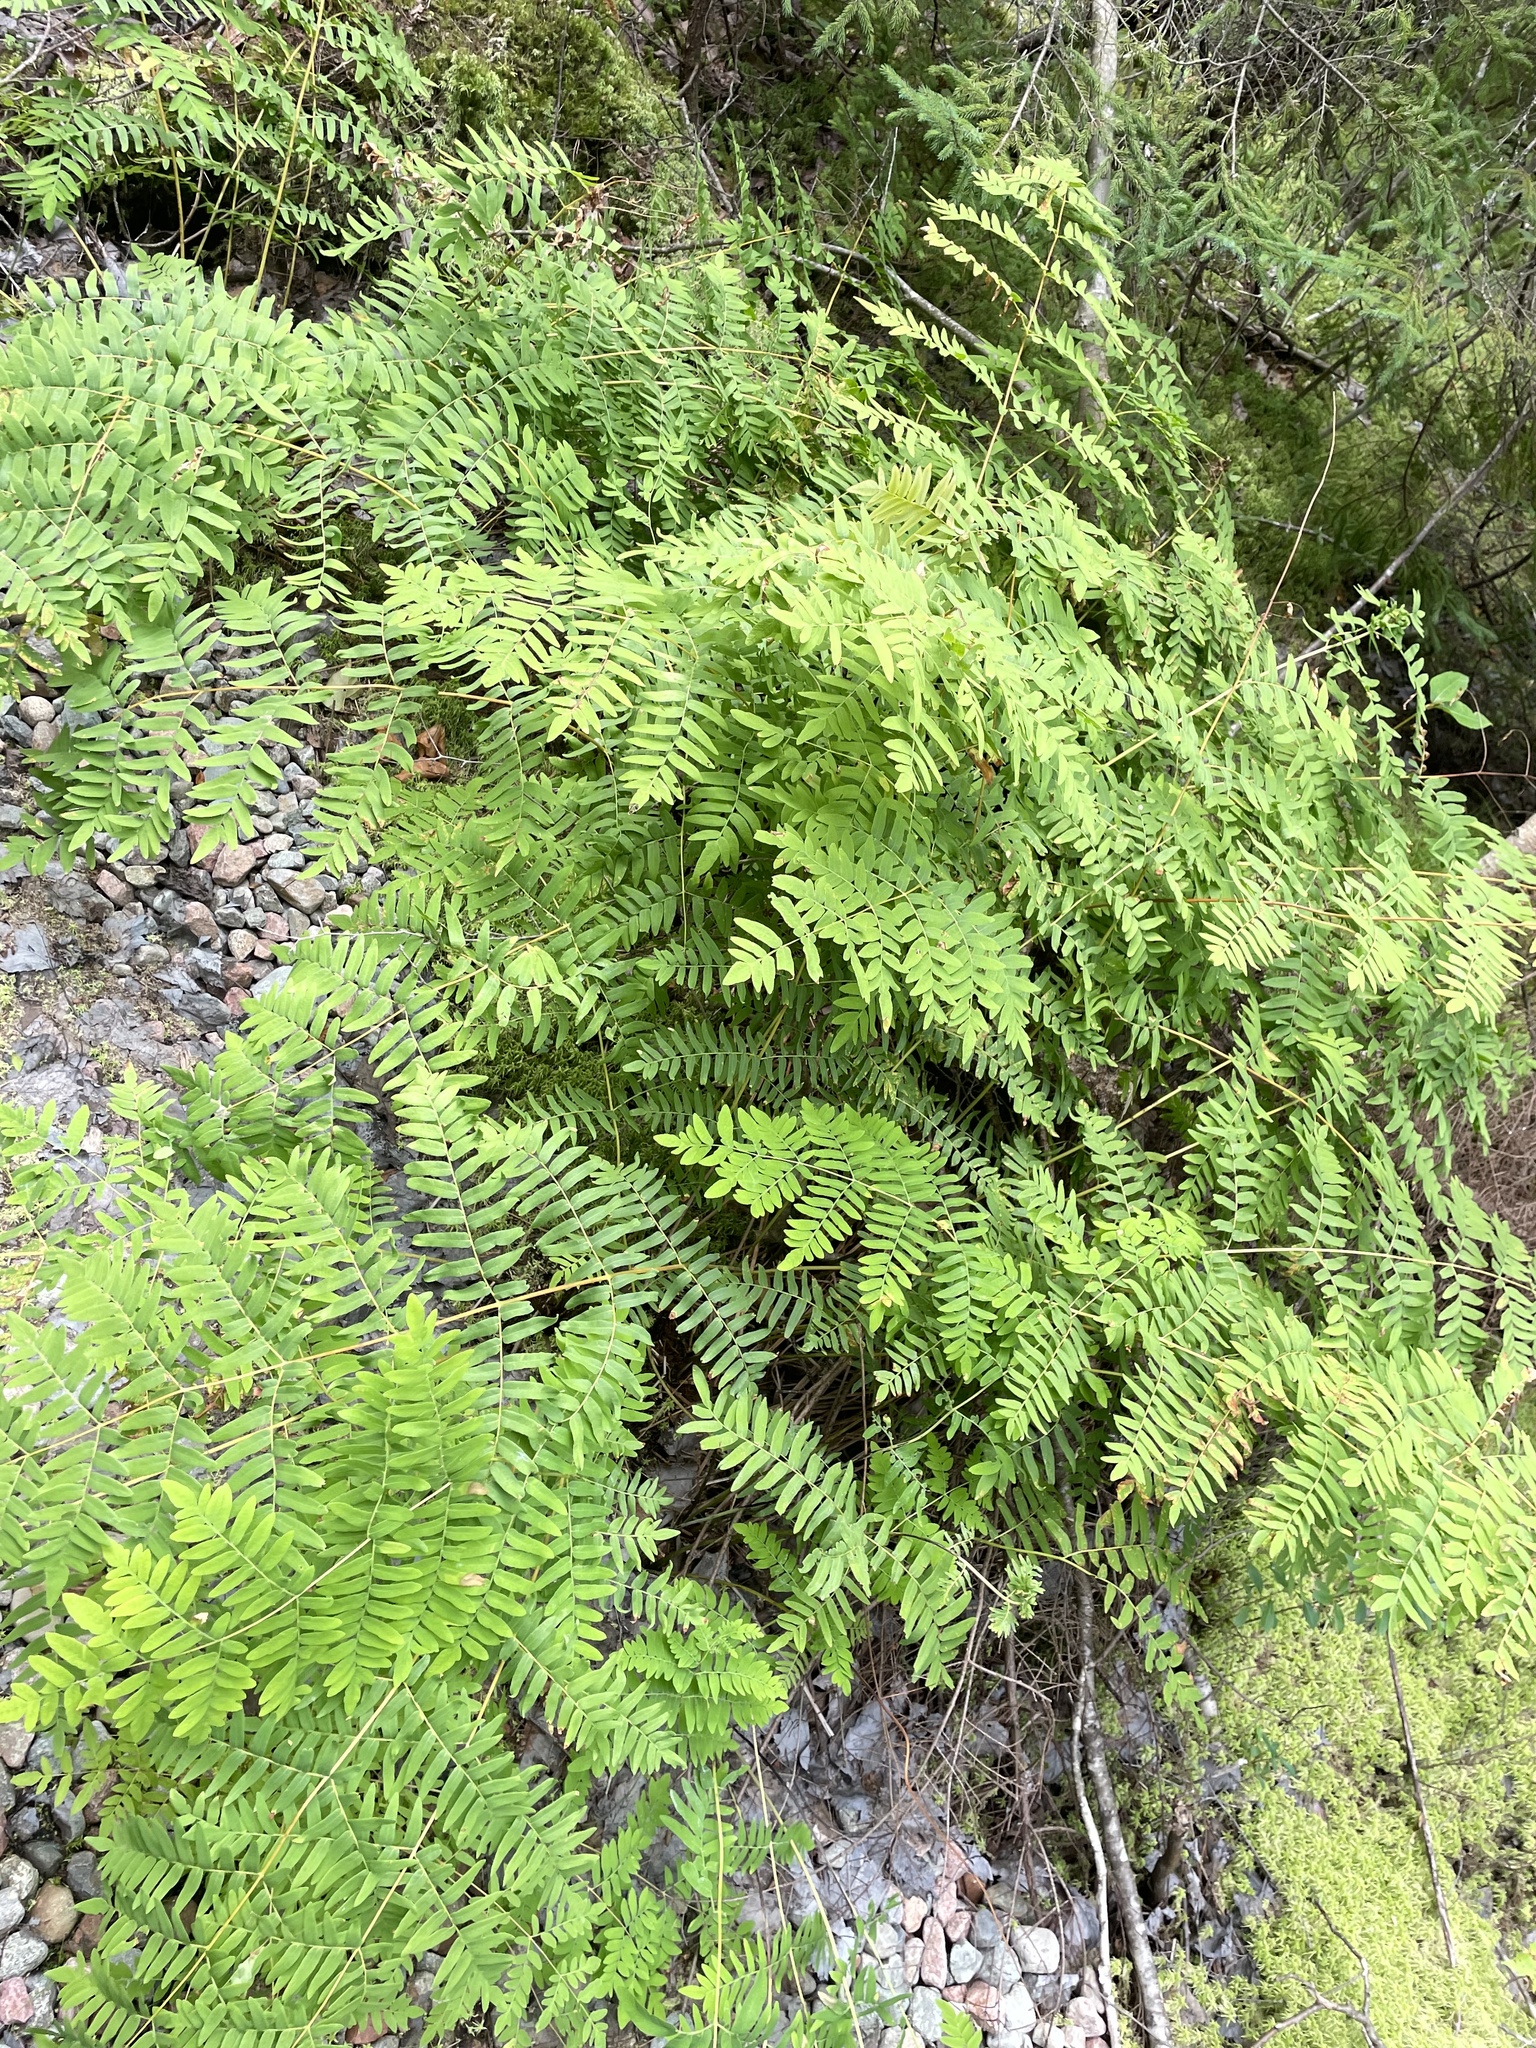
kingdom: Plantae
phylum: Tracheophyta
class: Polypodiopsida
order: Osmundales
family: Osmundaceae
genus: Osmunda
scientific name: Osmunda spectabilis
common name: American royal fern
